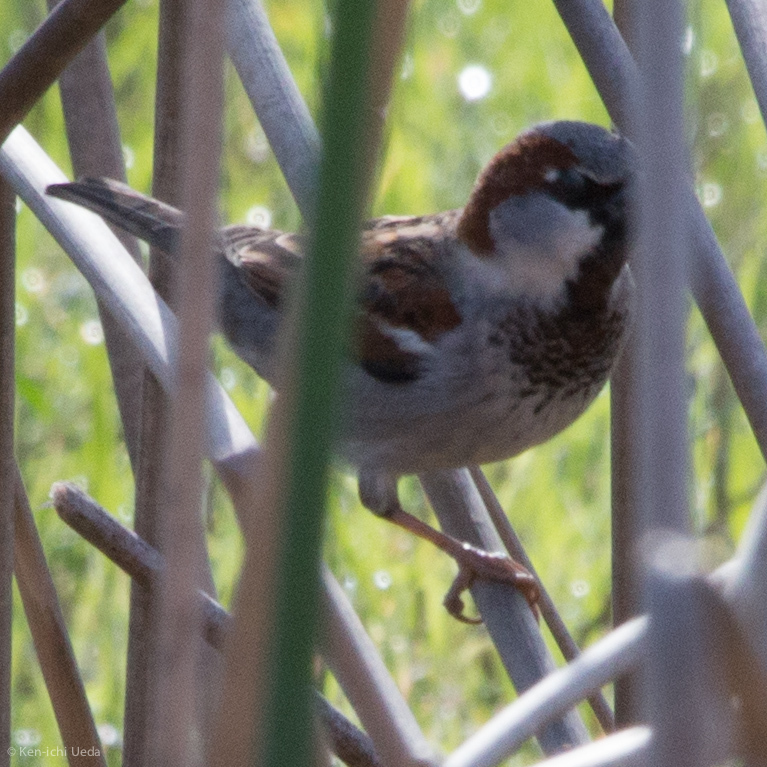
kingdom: Animalia
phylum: Chordata
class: Aves
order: Passeriformes
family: Passeridae
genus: Passer
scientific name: Passer domesticus
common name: House sparrow
